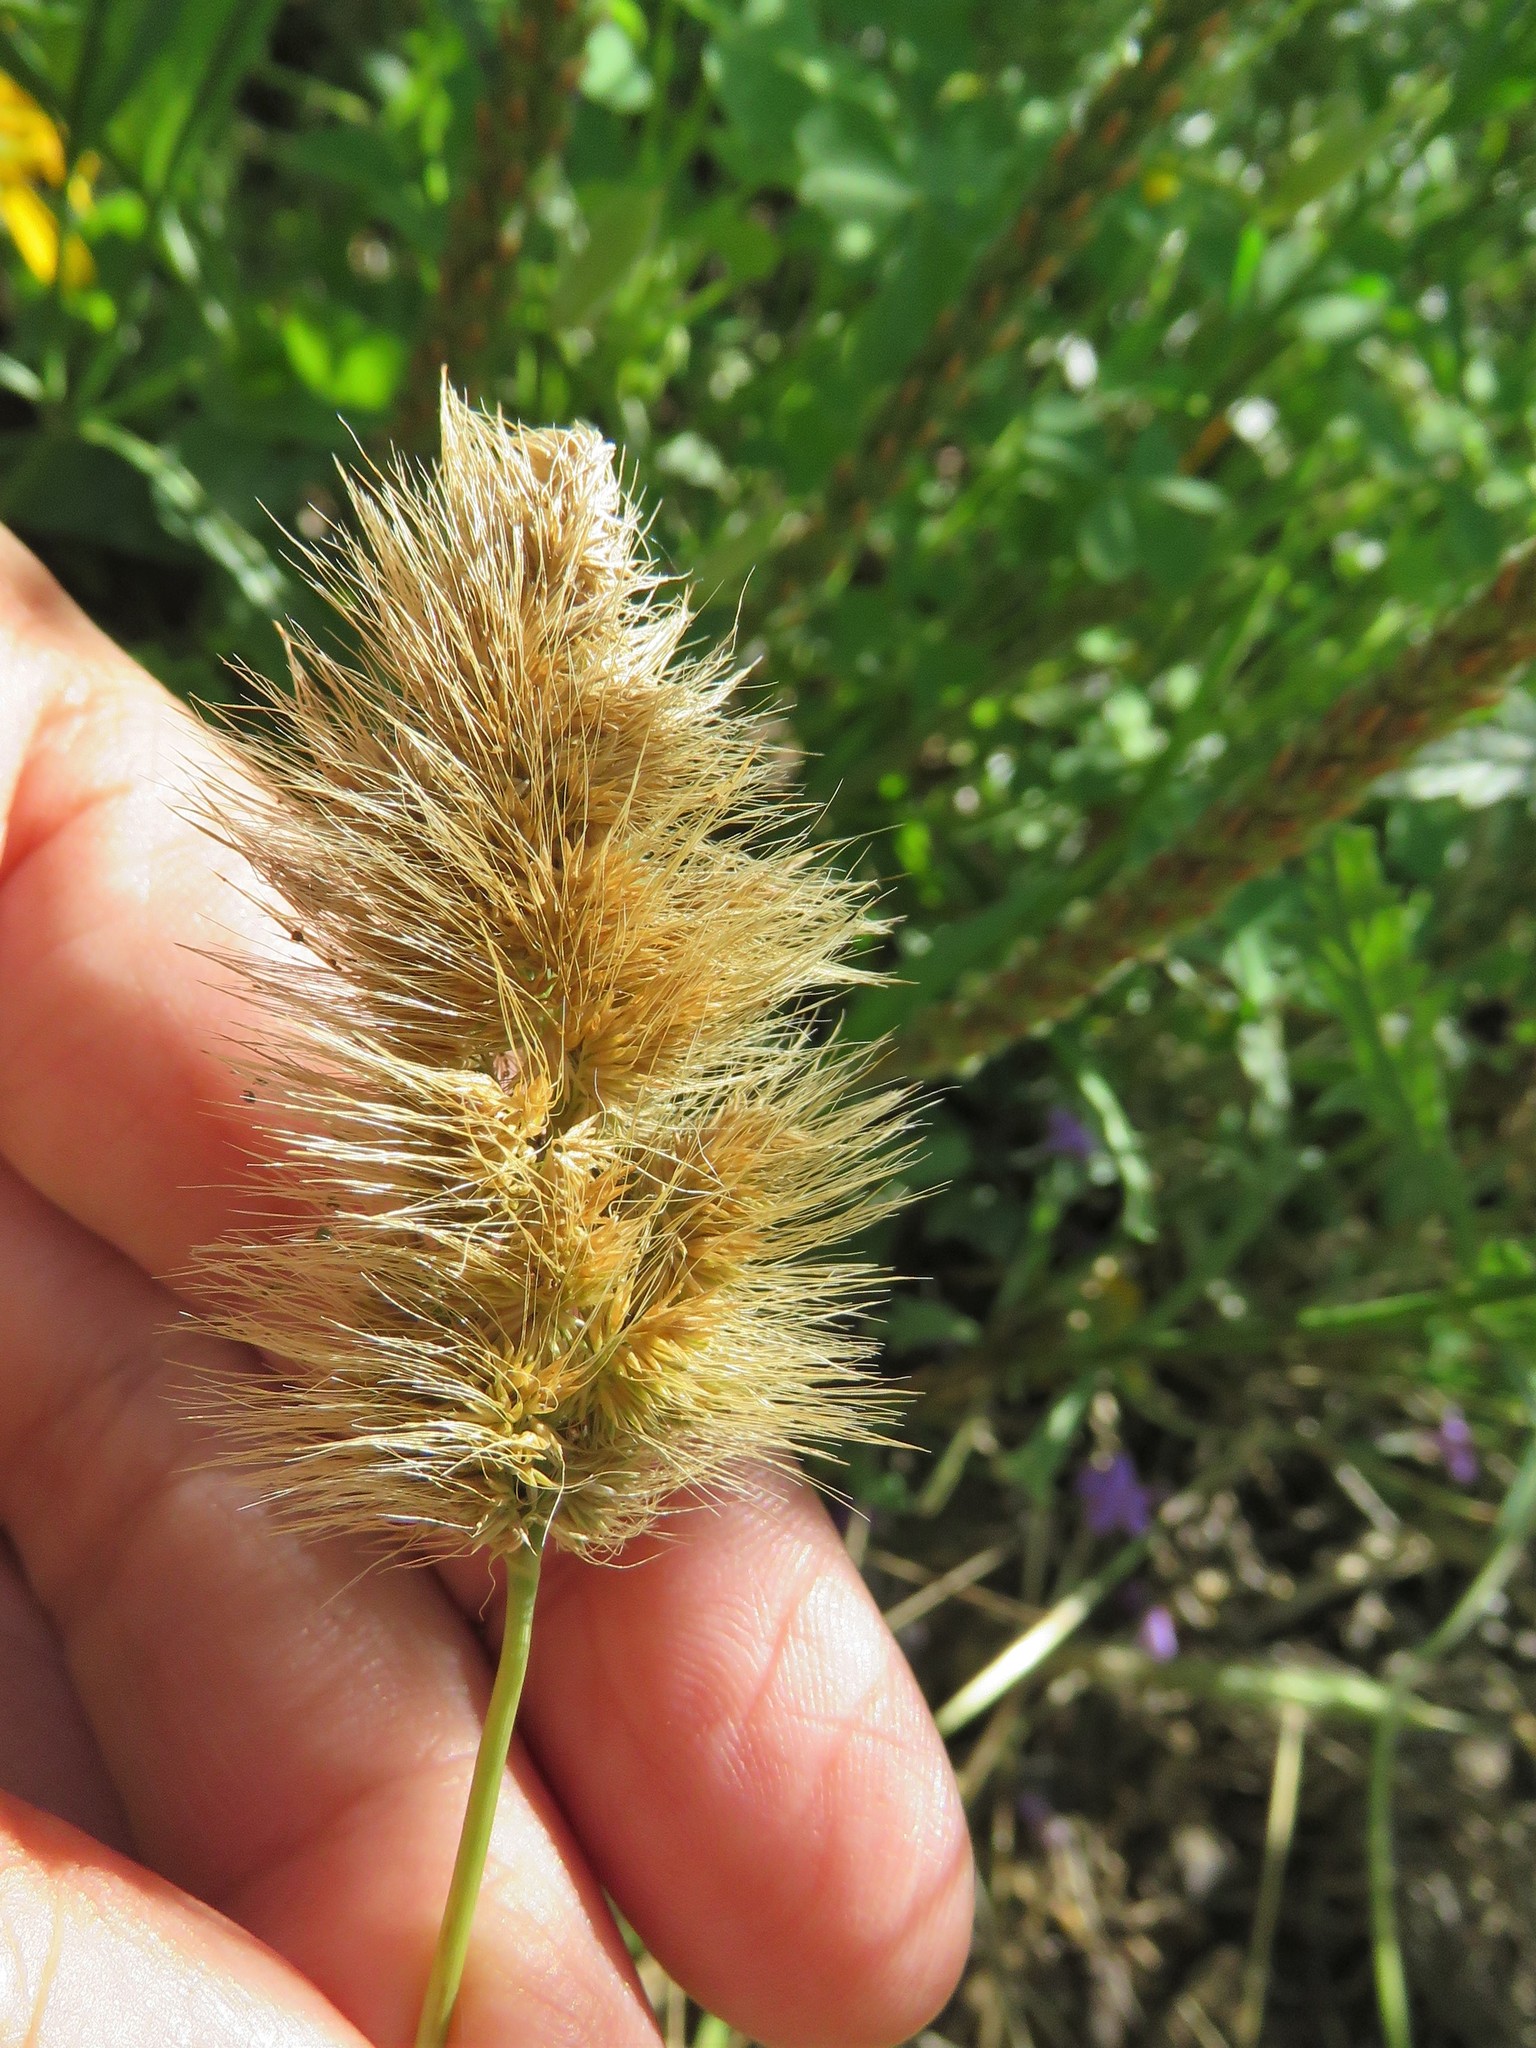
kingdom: Plantae
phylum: Tracheophyta
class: Liliopsida
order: Poales
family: Poaceae
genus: Polypogon
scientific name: Polypogon monspeliensis
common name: Annual rabbitsfoot grass
